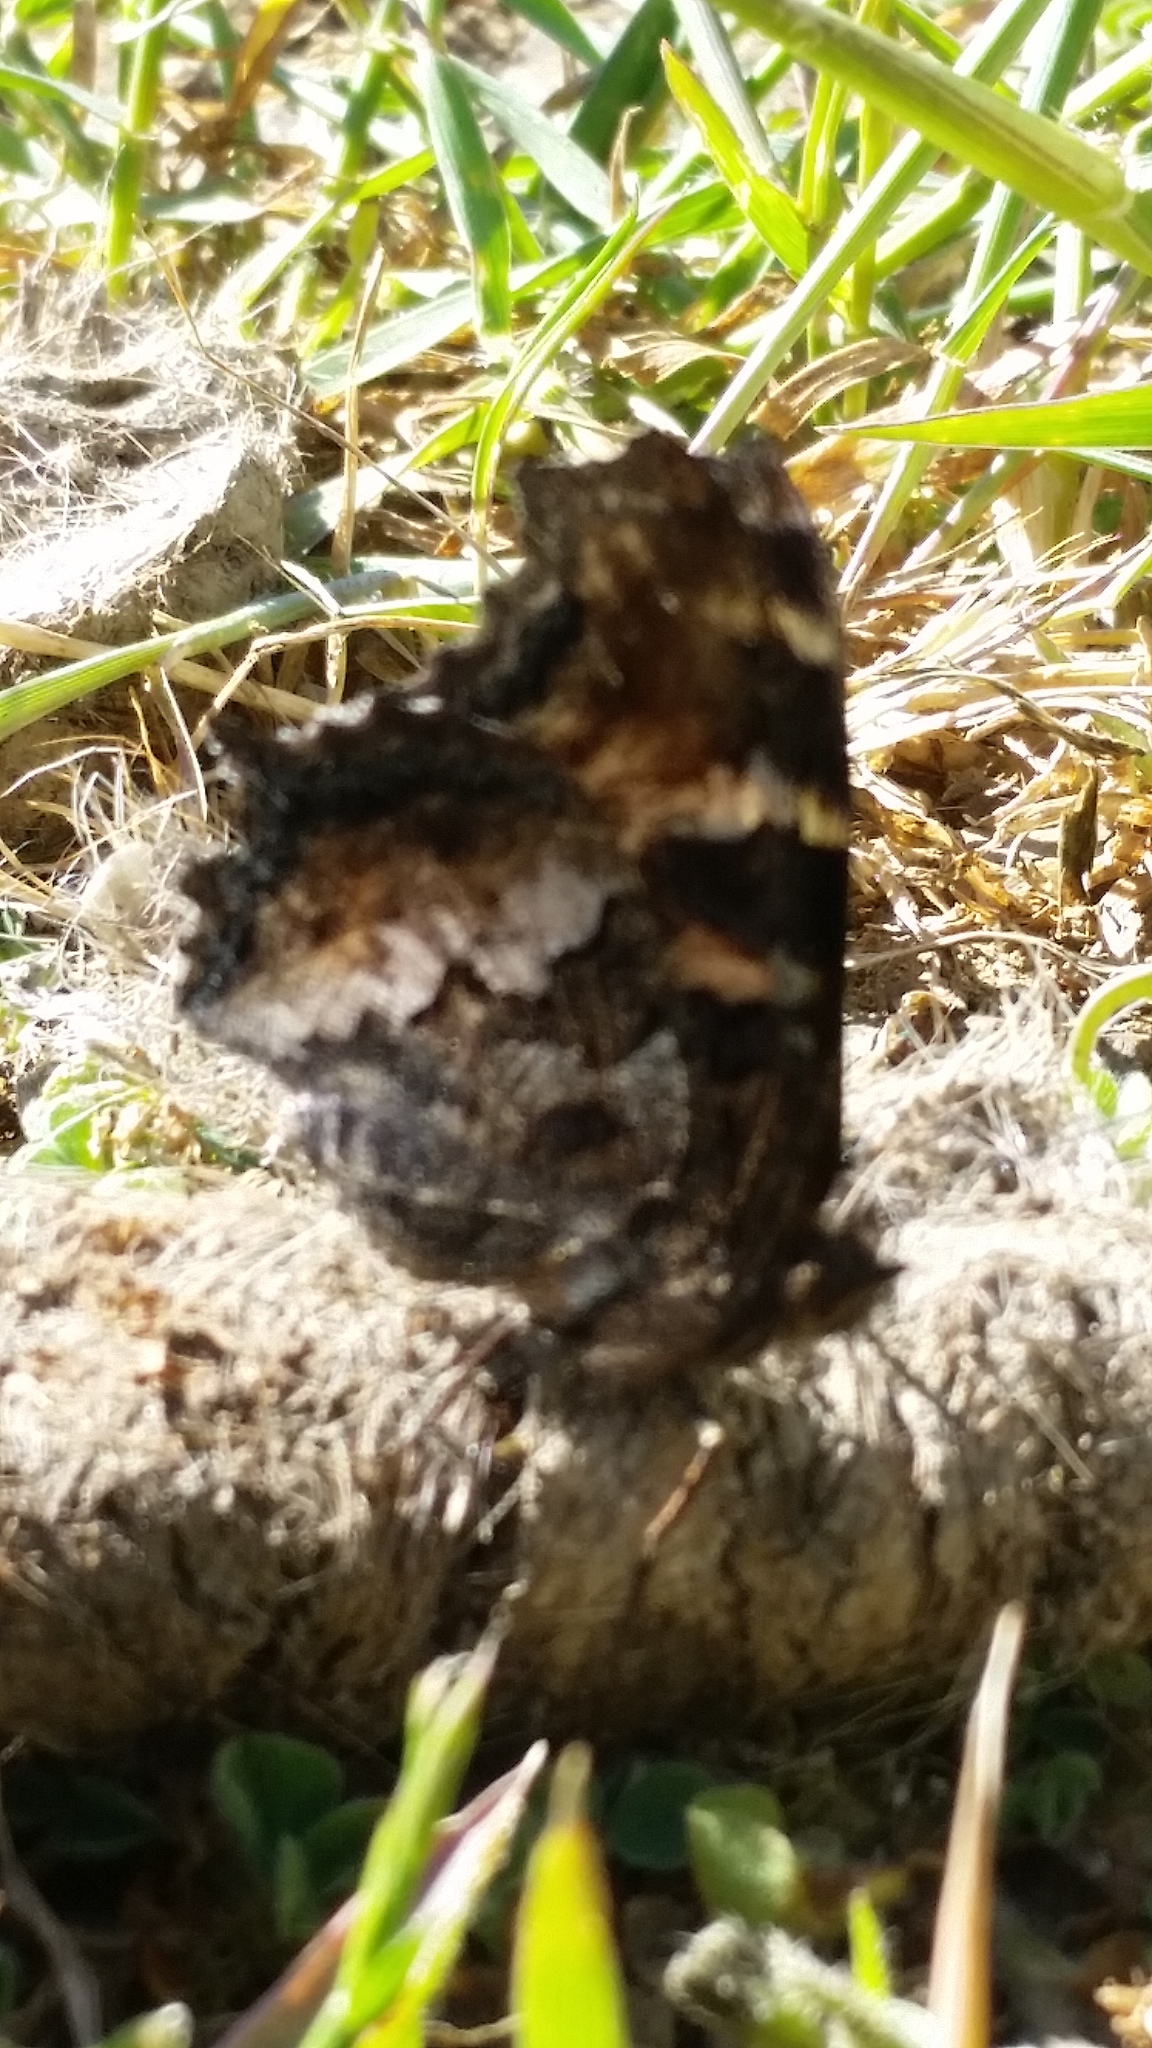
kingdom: Animalia
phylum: Arthropoda
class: Insecta
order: Lepidoptera
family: Nymphalidae
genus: Nymphalis
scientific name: Nymphalis californica
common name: California tortoiseshell
